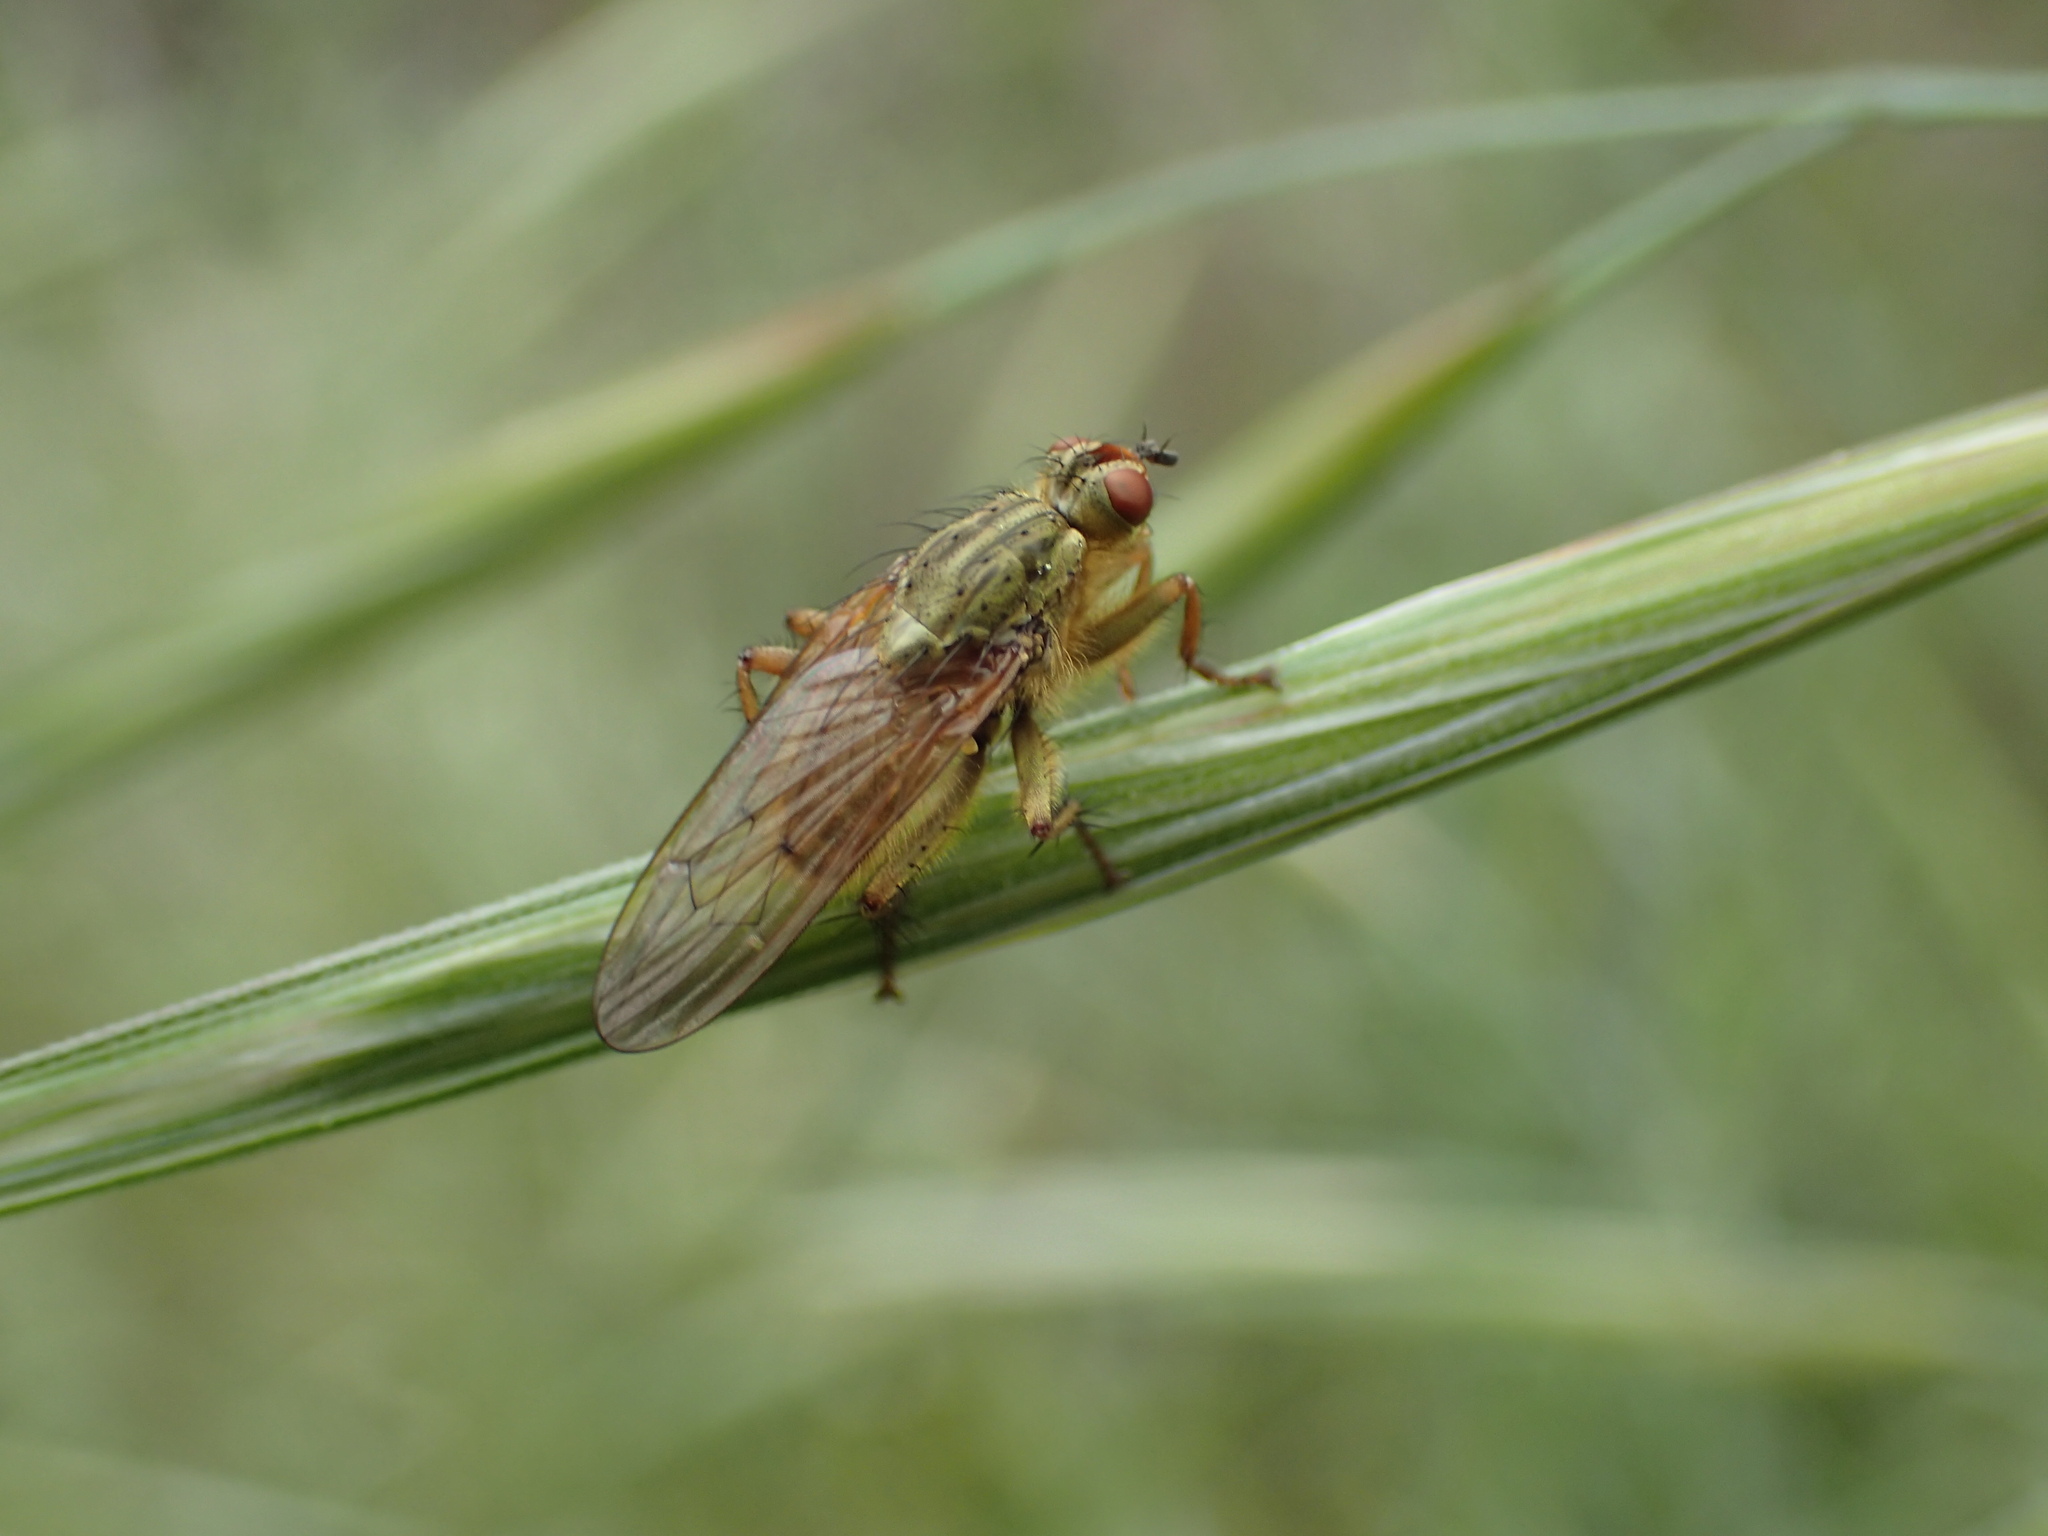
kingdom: Animalia
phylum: Arthropoda
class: Insecta
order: Diptera
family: Scathophagidae
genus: Scathophaga
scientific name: Scathophaga stercoraria
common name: Yellow dung fly
